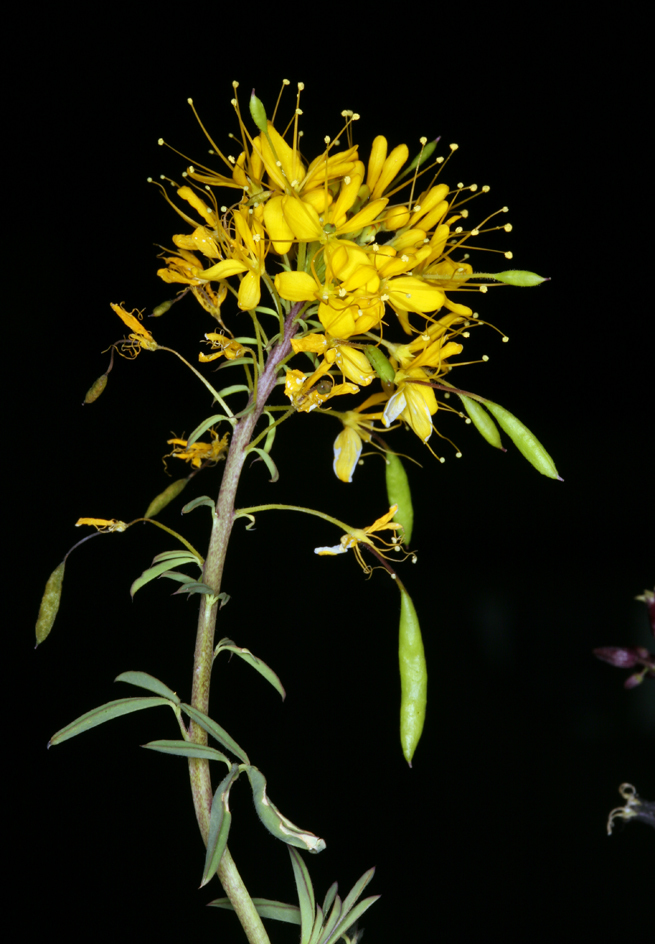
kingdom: Plantae
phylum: Tracheophyta
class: Magnoliopsida
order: Brassicales
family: Cleomaceae
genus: Cleomella
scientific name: Cleomella lutea
